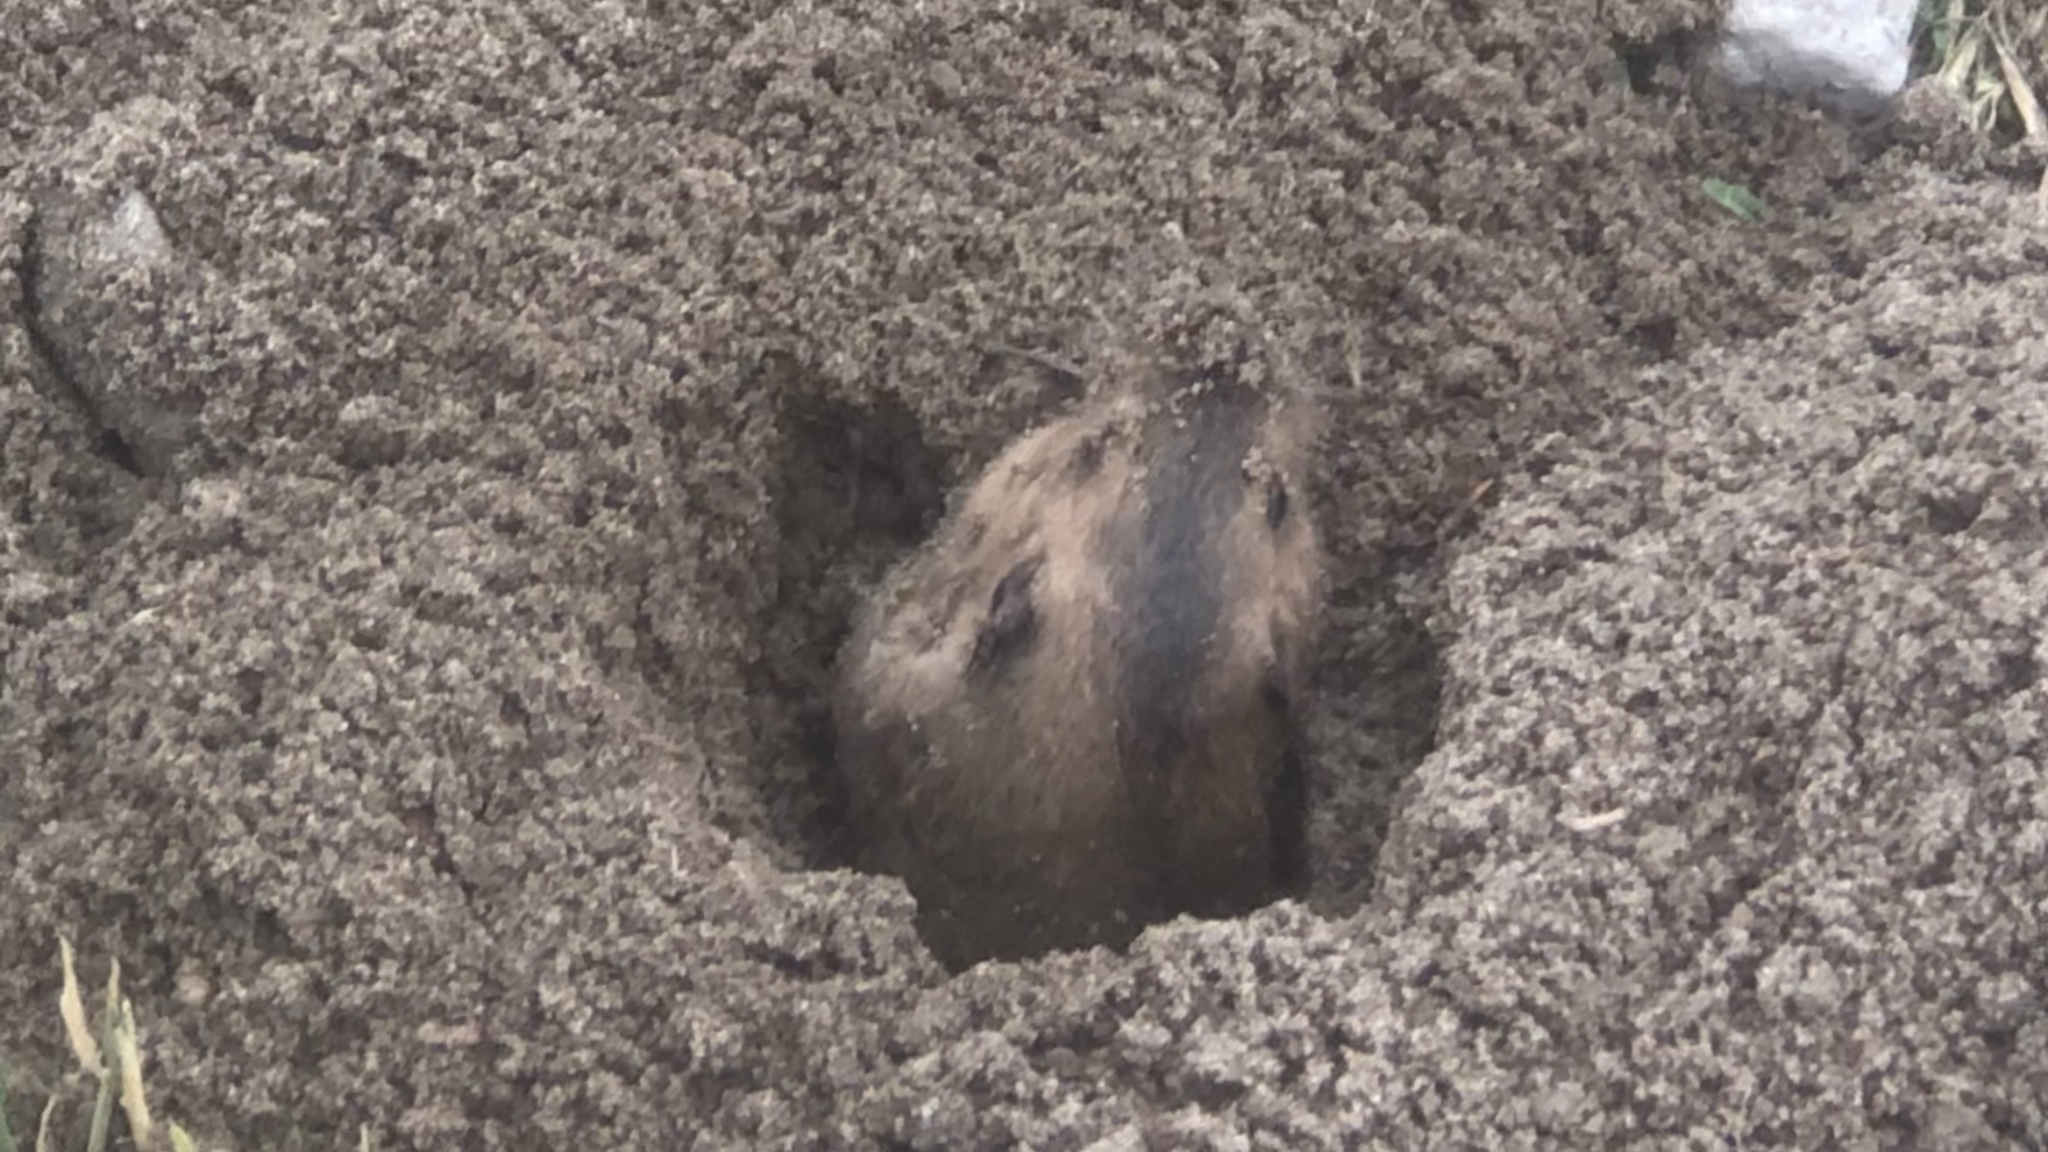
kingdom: Animalia
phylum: Chordata
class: Mammalia
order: Rodentia
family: Geomyidae
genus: Thomomys
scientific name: Thomomys bottae
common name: Botta's pocket gopher
